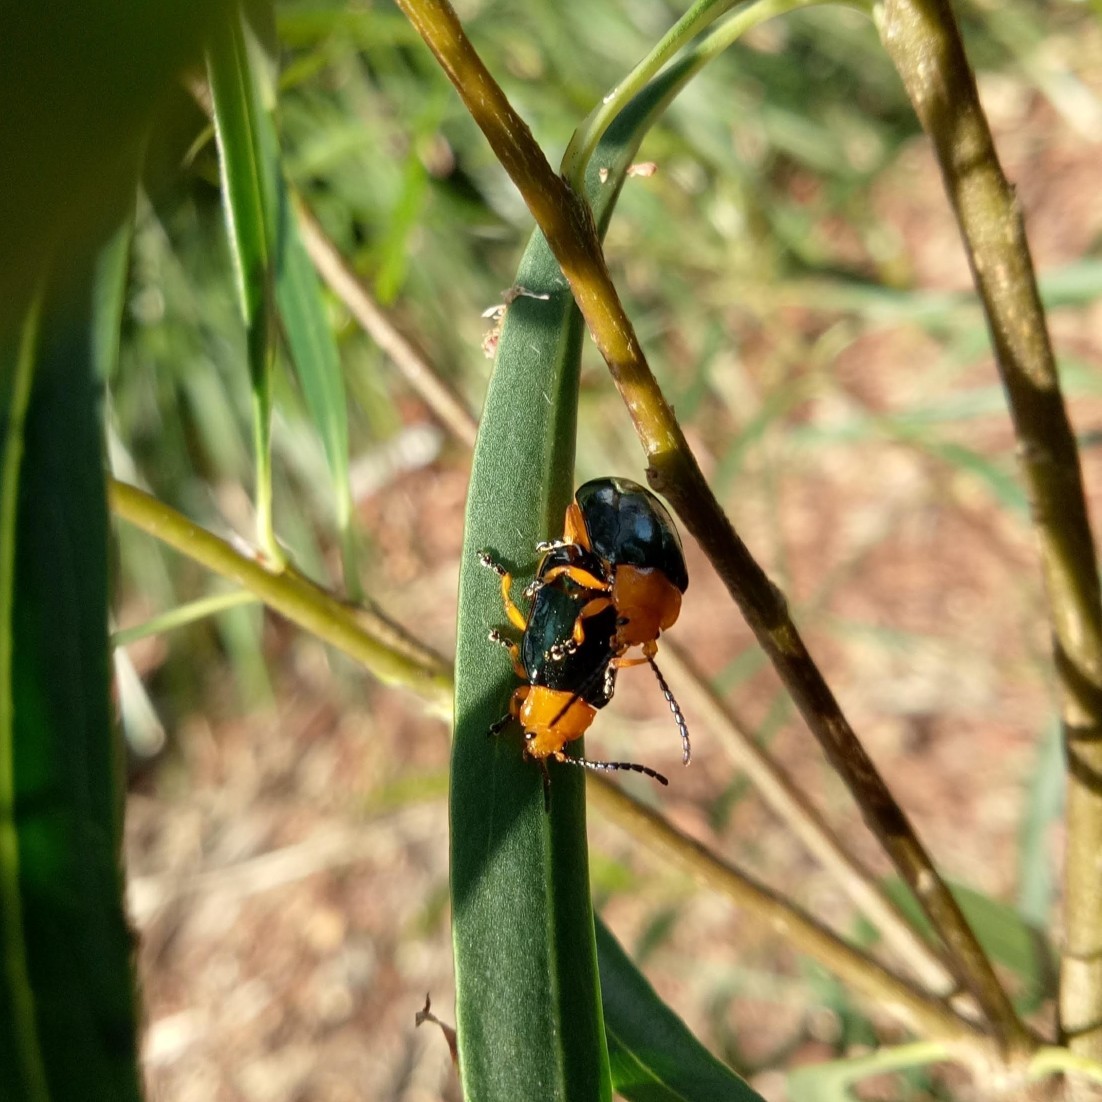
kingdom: Animalia
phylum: Arthropoda
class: Insecta
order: Coleoptera
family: Chrysomelidae
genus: Lamprolina
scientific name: Lamprolina
